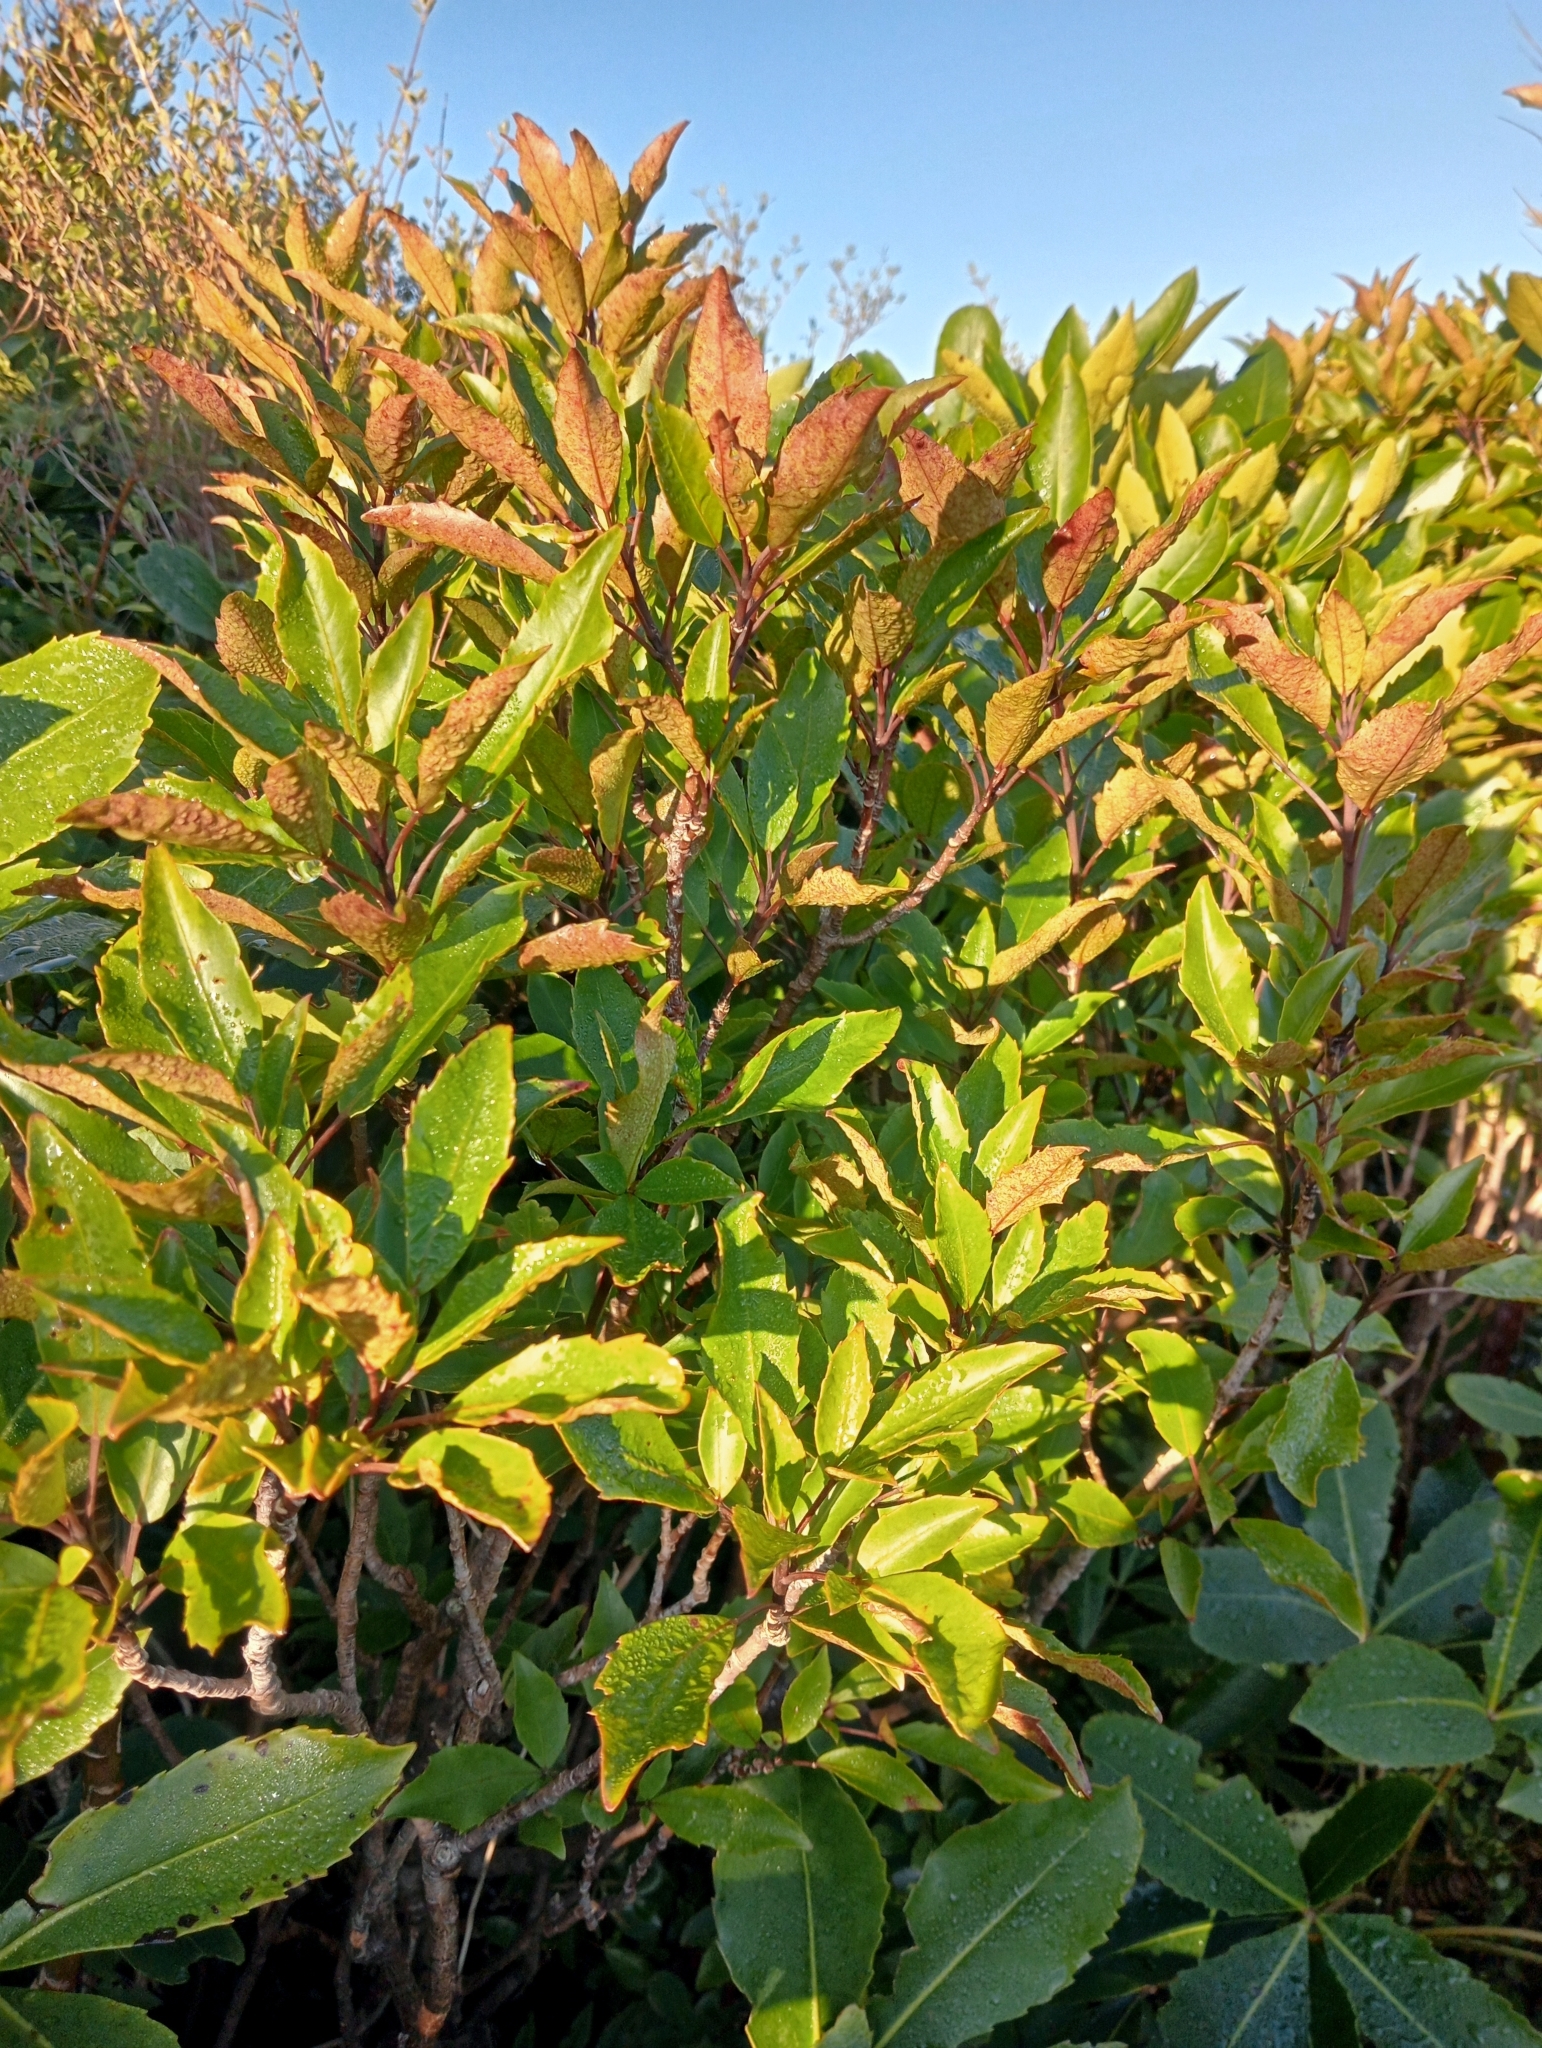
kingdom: Plantae
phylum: Tracheophyta
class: Magnoliopsida
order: Apiales
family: Araliaceae
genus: Raukaua
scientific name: Raukaua simplex
